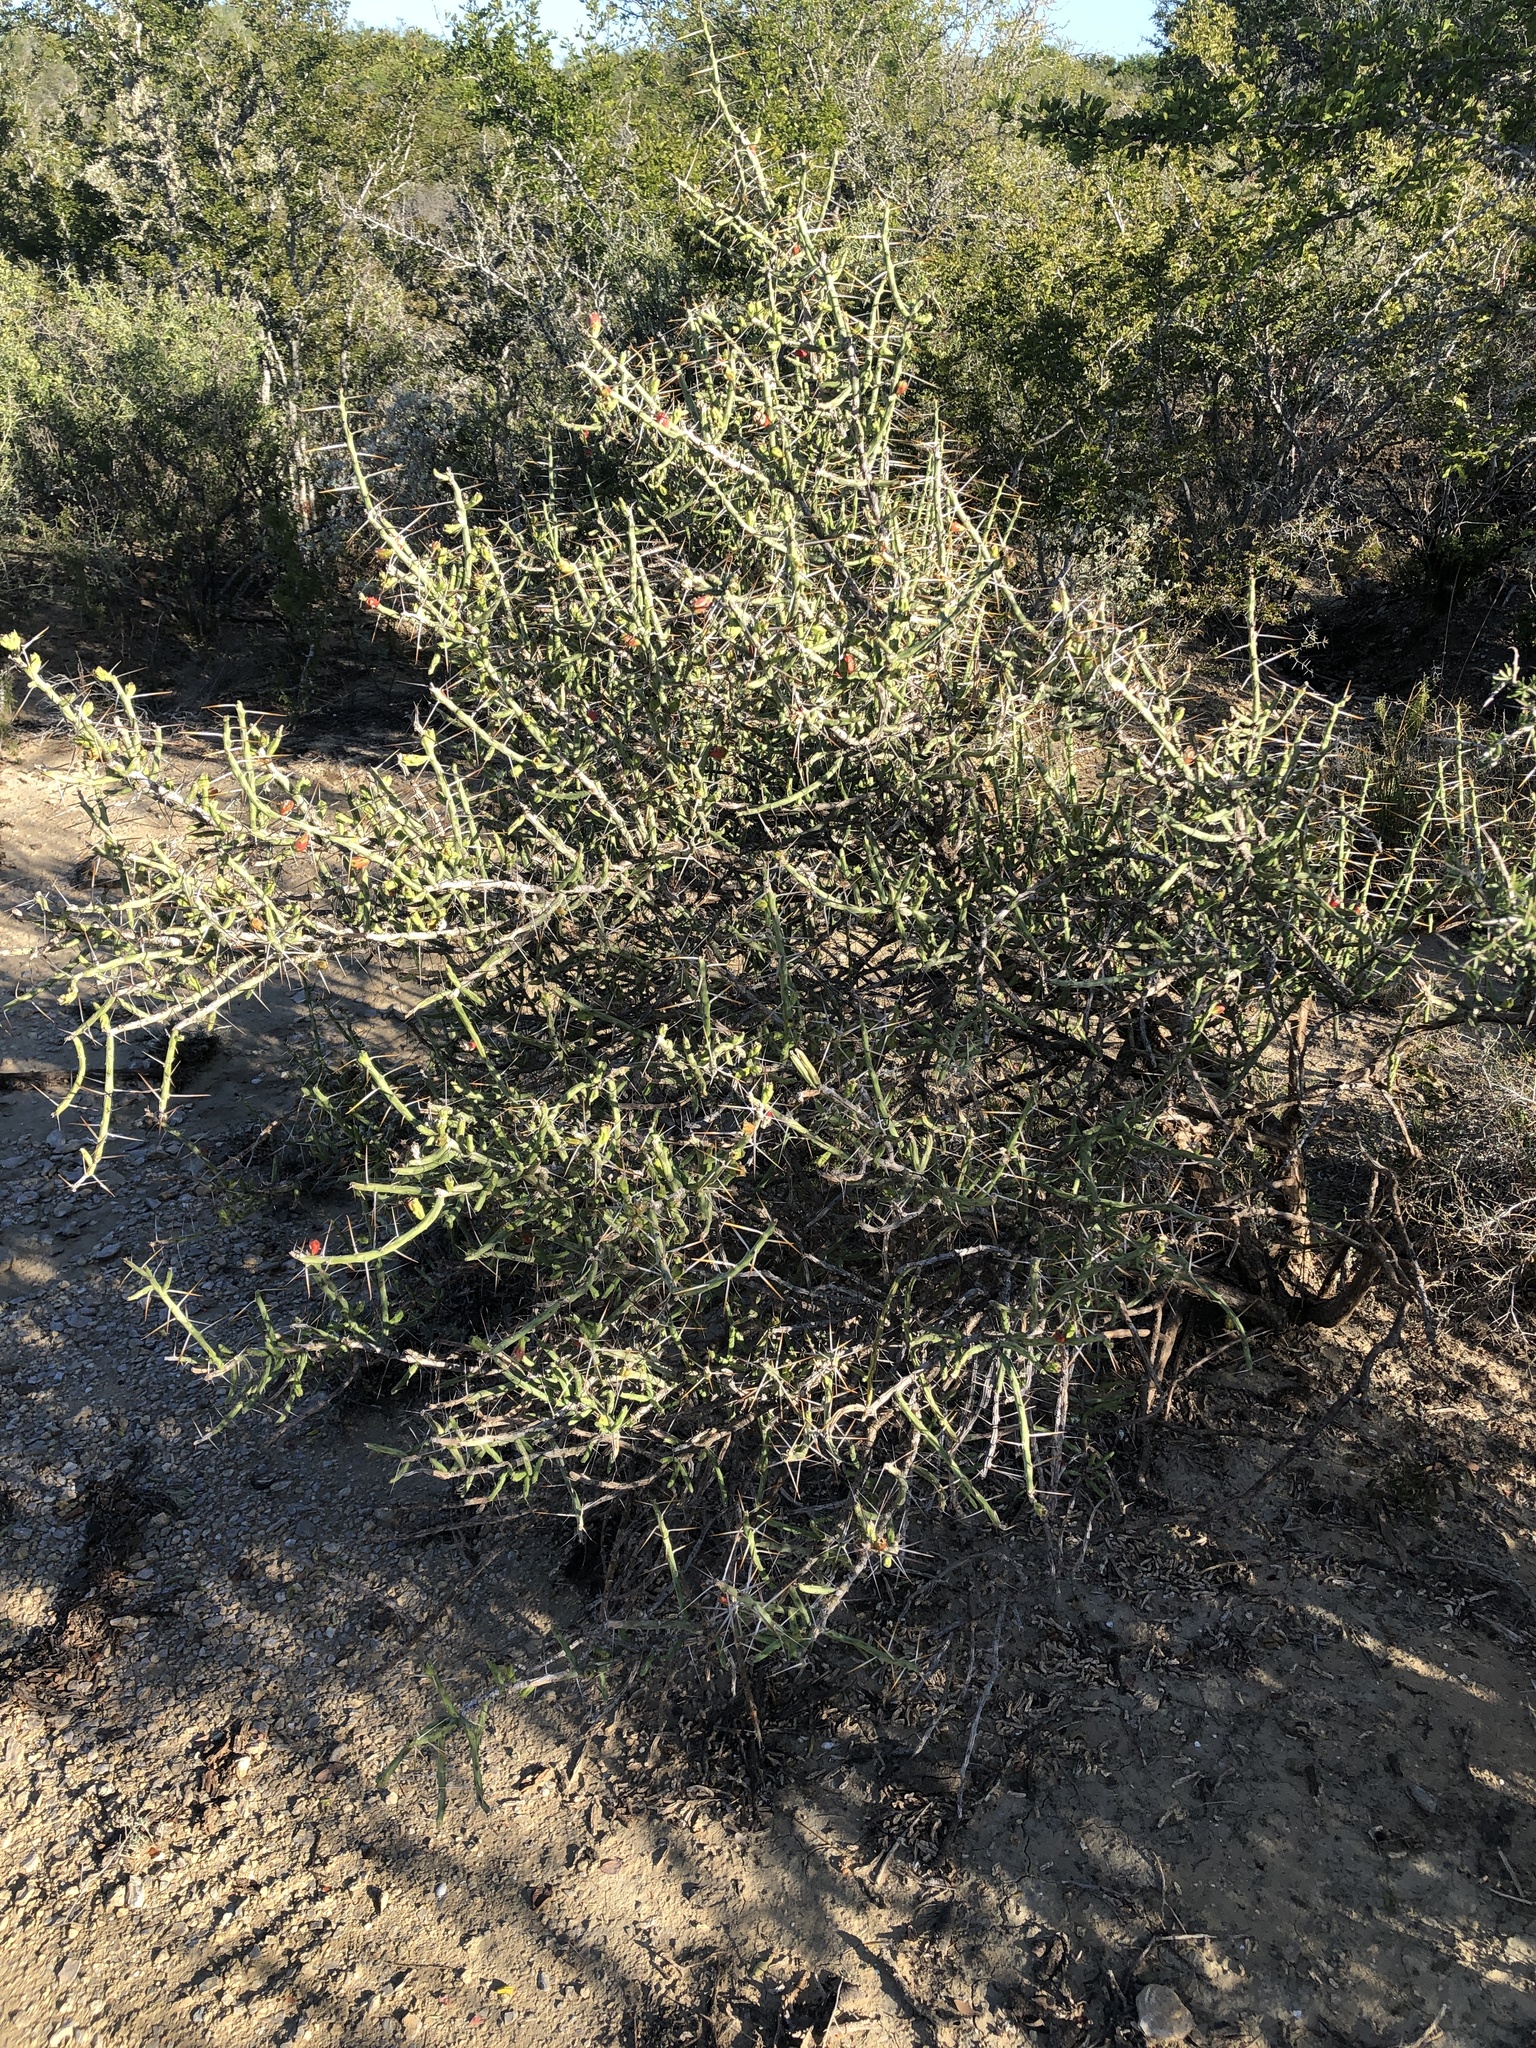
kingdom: Plantae
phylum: Tracheophyta
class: Magnoliopsida
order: Caryophyllales
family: Cactaceae
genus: Cylindropuntia
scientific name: Cylindropuntia leptocaulis
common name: Christmas cactus
